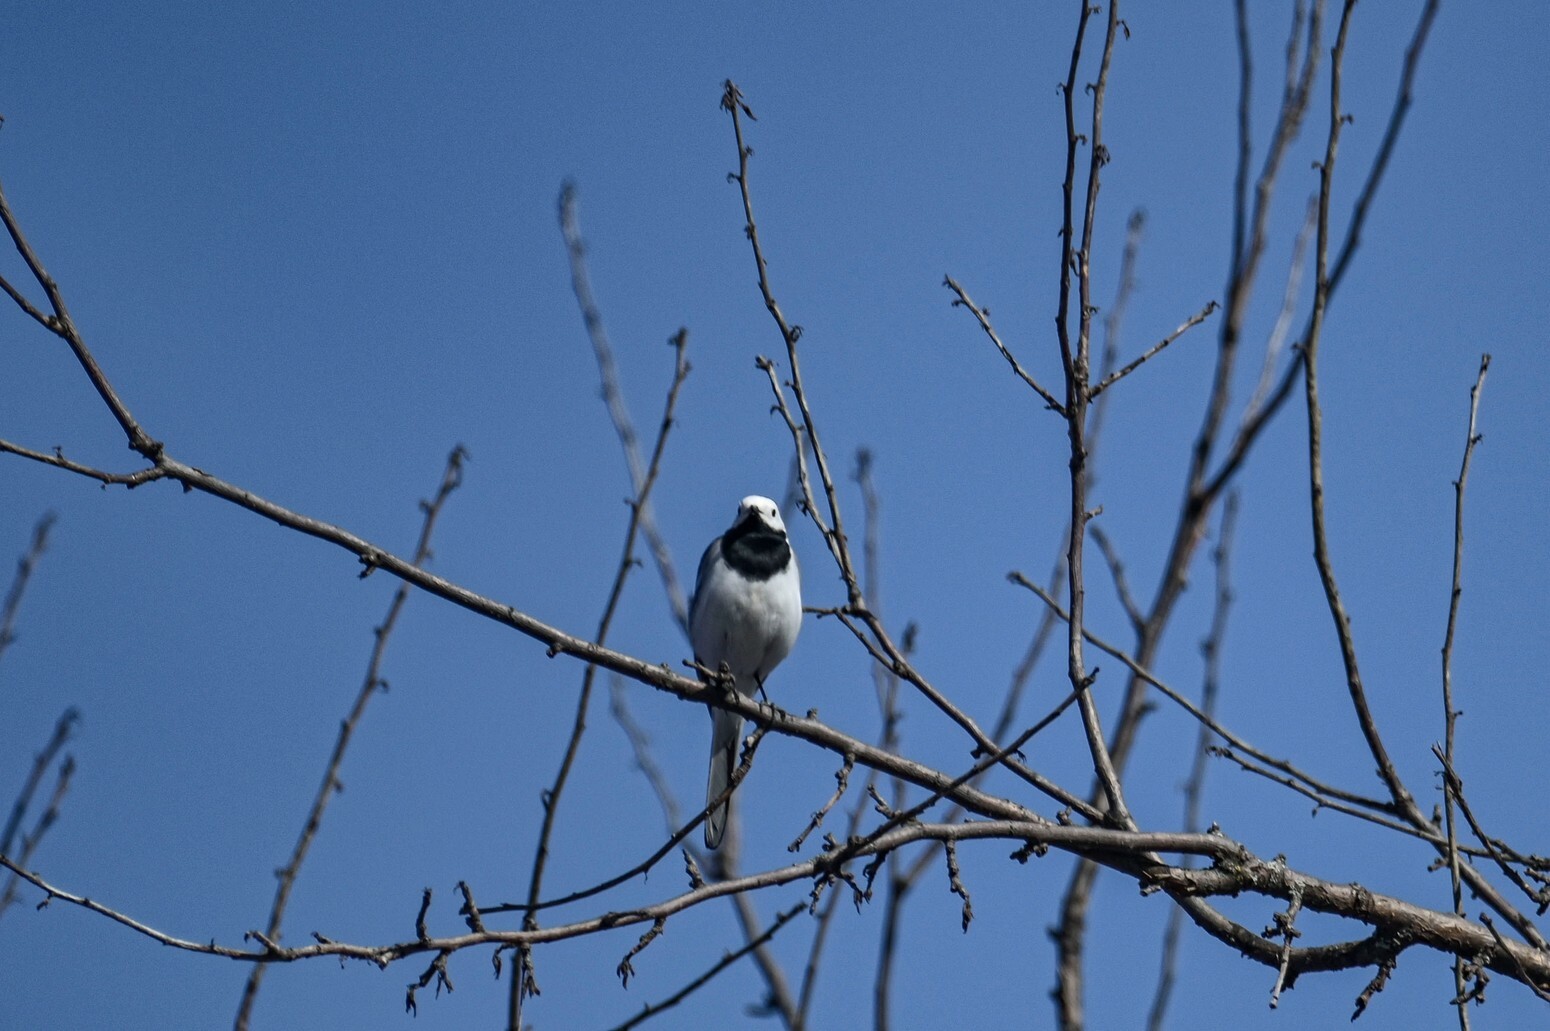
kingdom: Animalia
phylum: Chordata
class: Aves
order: Passeriformes
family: Motacillidae
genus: Motacilla
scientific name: Motacilla alba
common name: White wagtail
